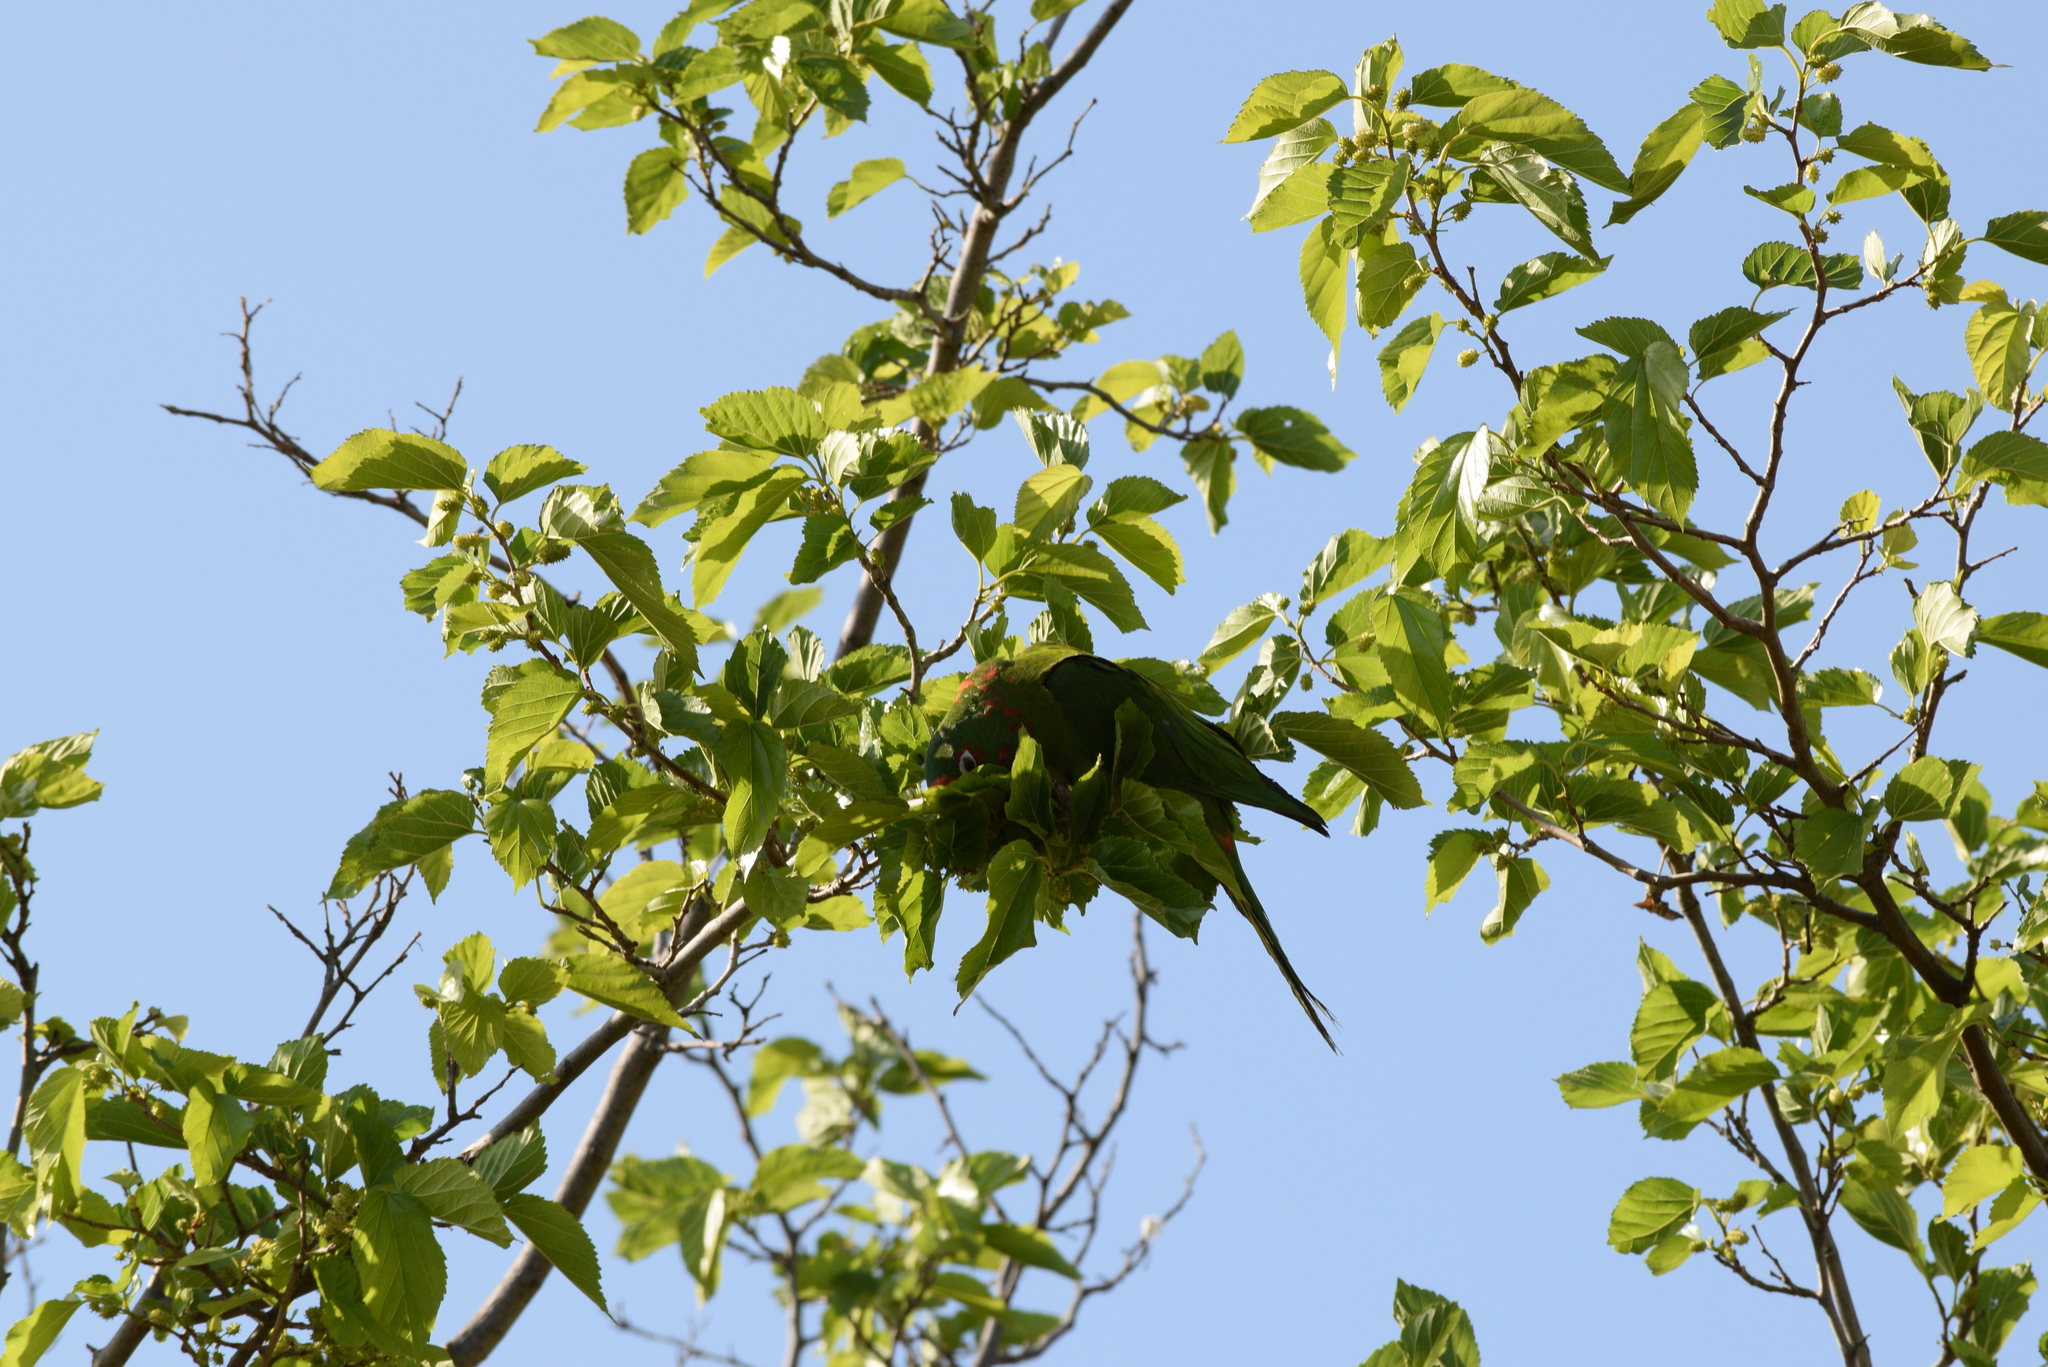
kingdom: Animalia
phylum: Chordata
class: Aves
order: Psittaciformes
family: Psittacidae
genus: Aratinga
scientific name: Aratinga mitrata
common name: Mitred parakeet
